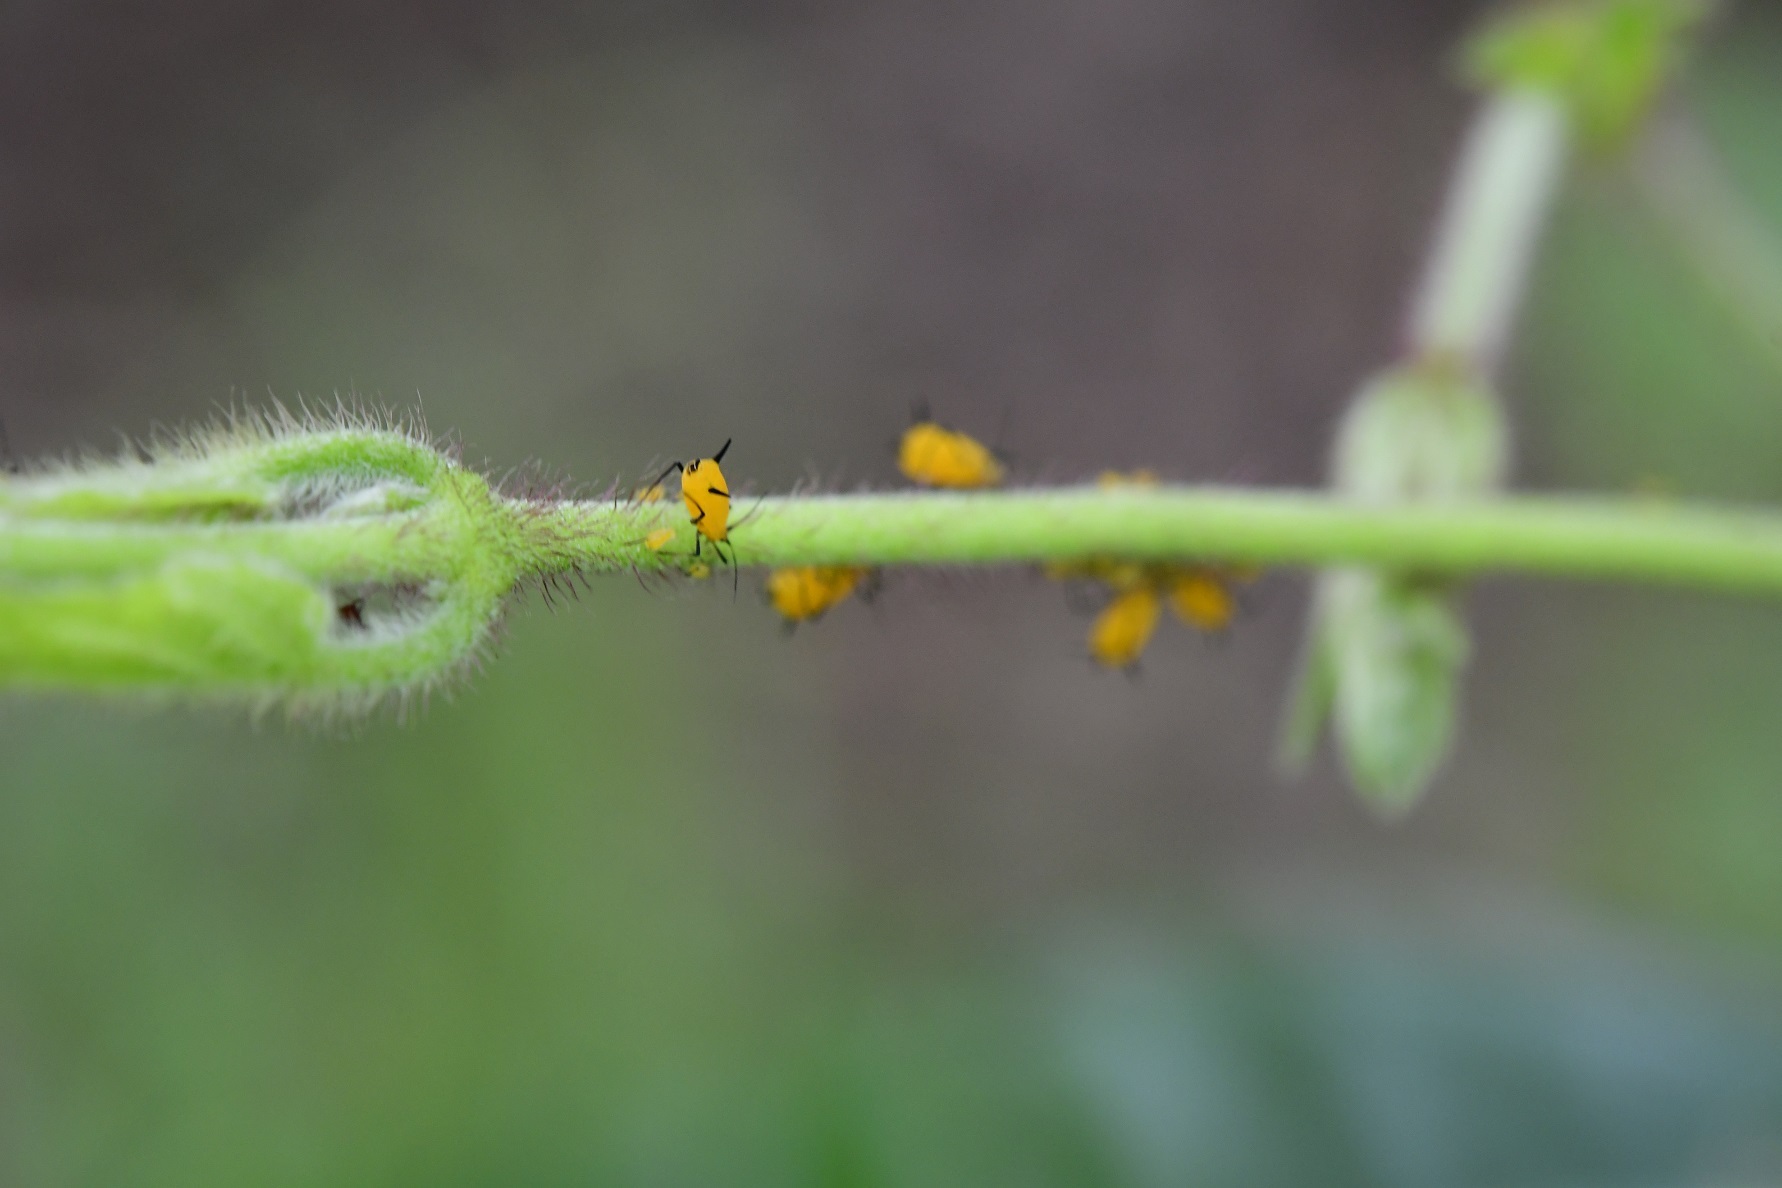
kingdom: Animalia
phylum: Arthropoda
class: Insecta
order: Hemiptera
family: Aphididae
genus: Aphis
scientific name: Aphis nerii
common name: Oleander aphid
